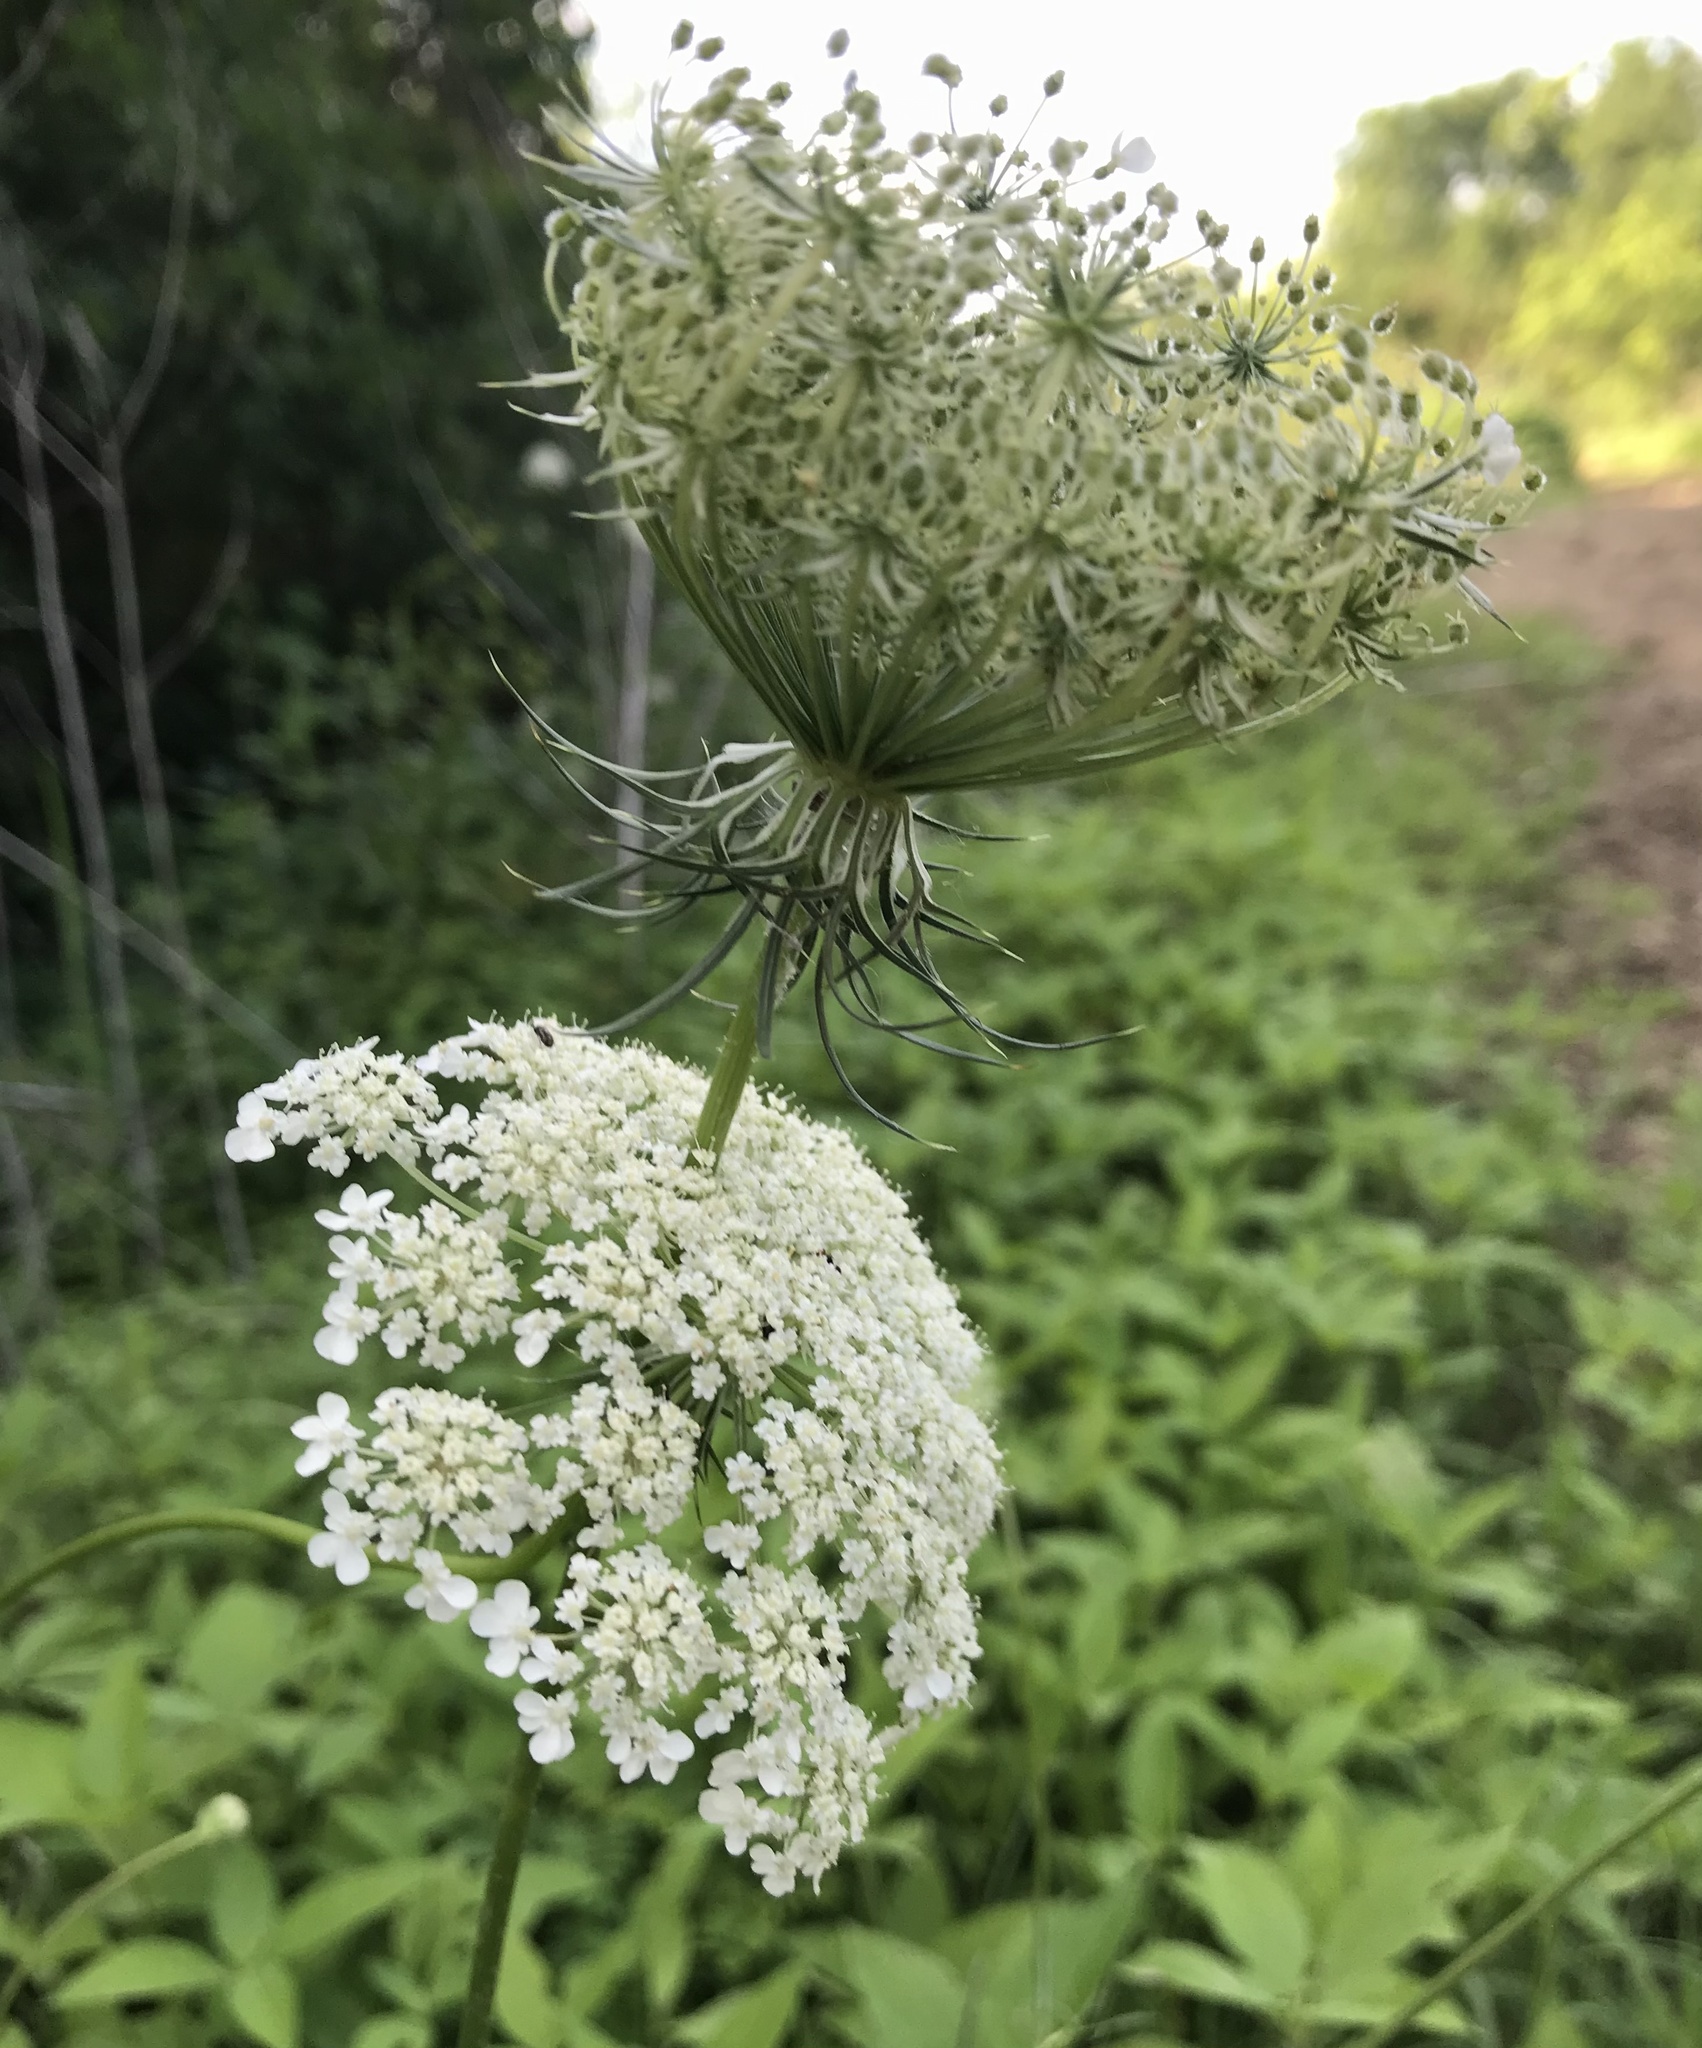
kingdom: Plantae
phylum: Tracheophyta
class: Magnoliopsida
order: Apiales
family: Apiaceae
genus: Daucus
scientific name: Daucus carota
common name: Wild carrot
